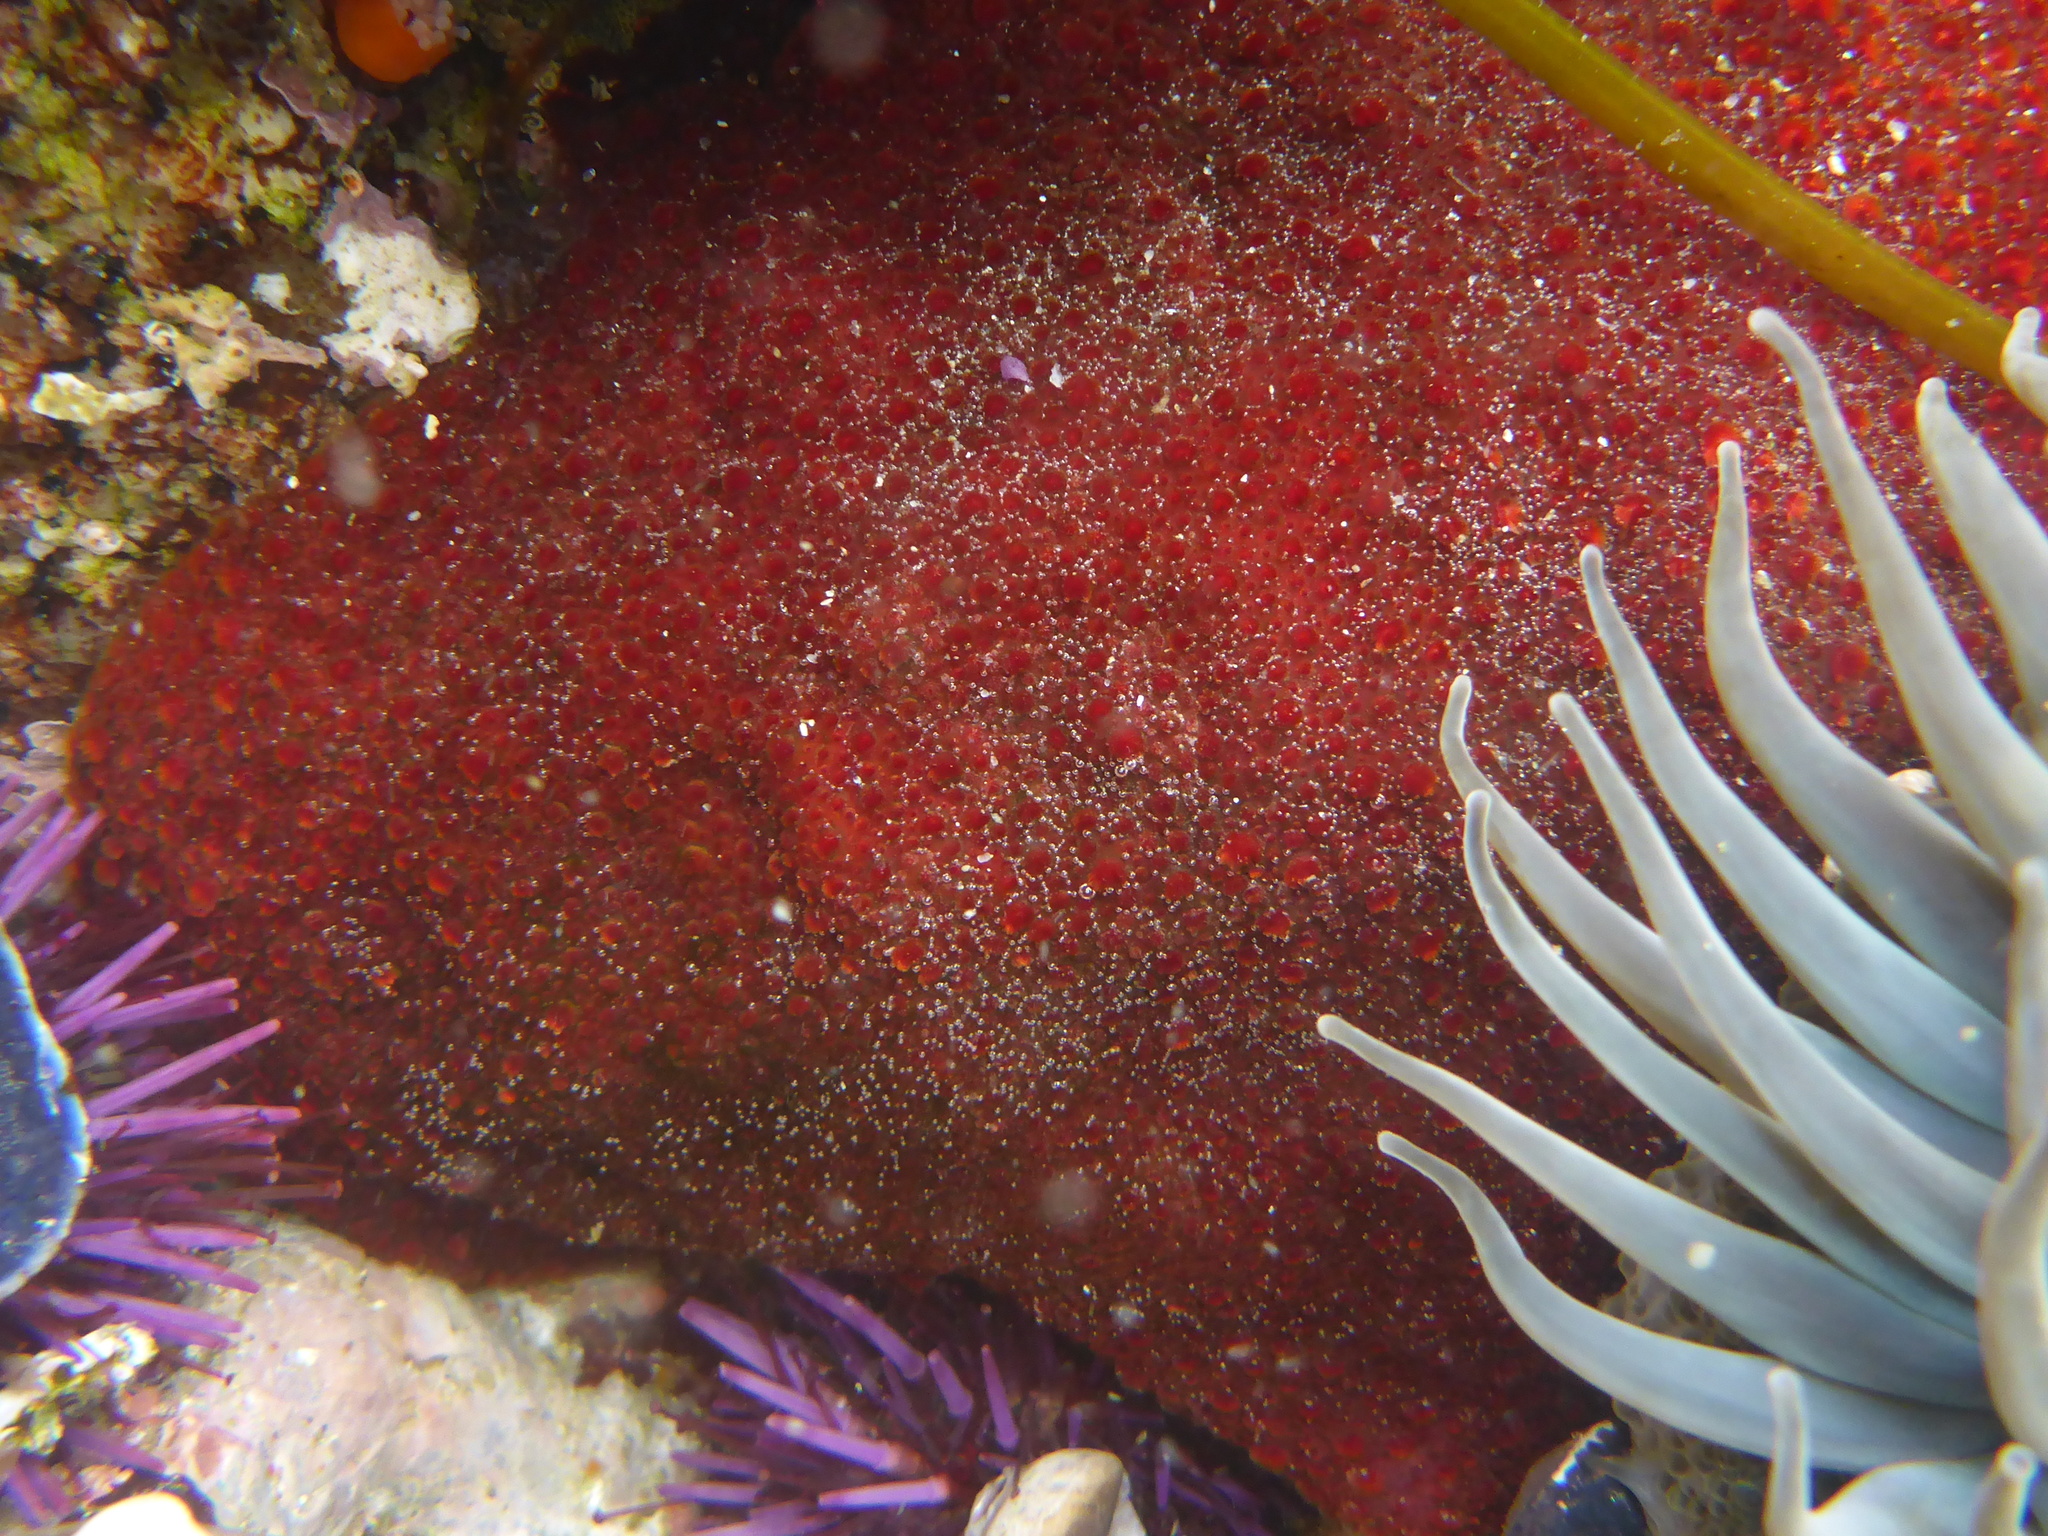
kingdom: Animalia
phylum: Mollusca
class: Polyplacophora
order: Chitonida
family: Acanthochitonidae
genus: Cryptochiton
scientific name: Cryptochiton stelleri
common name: Giant pacific chiton
